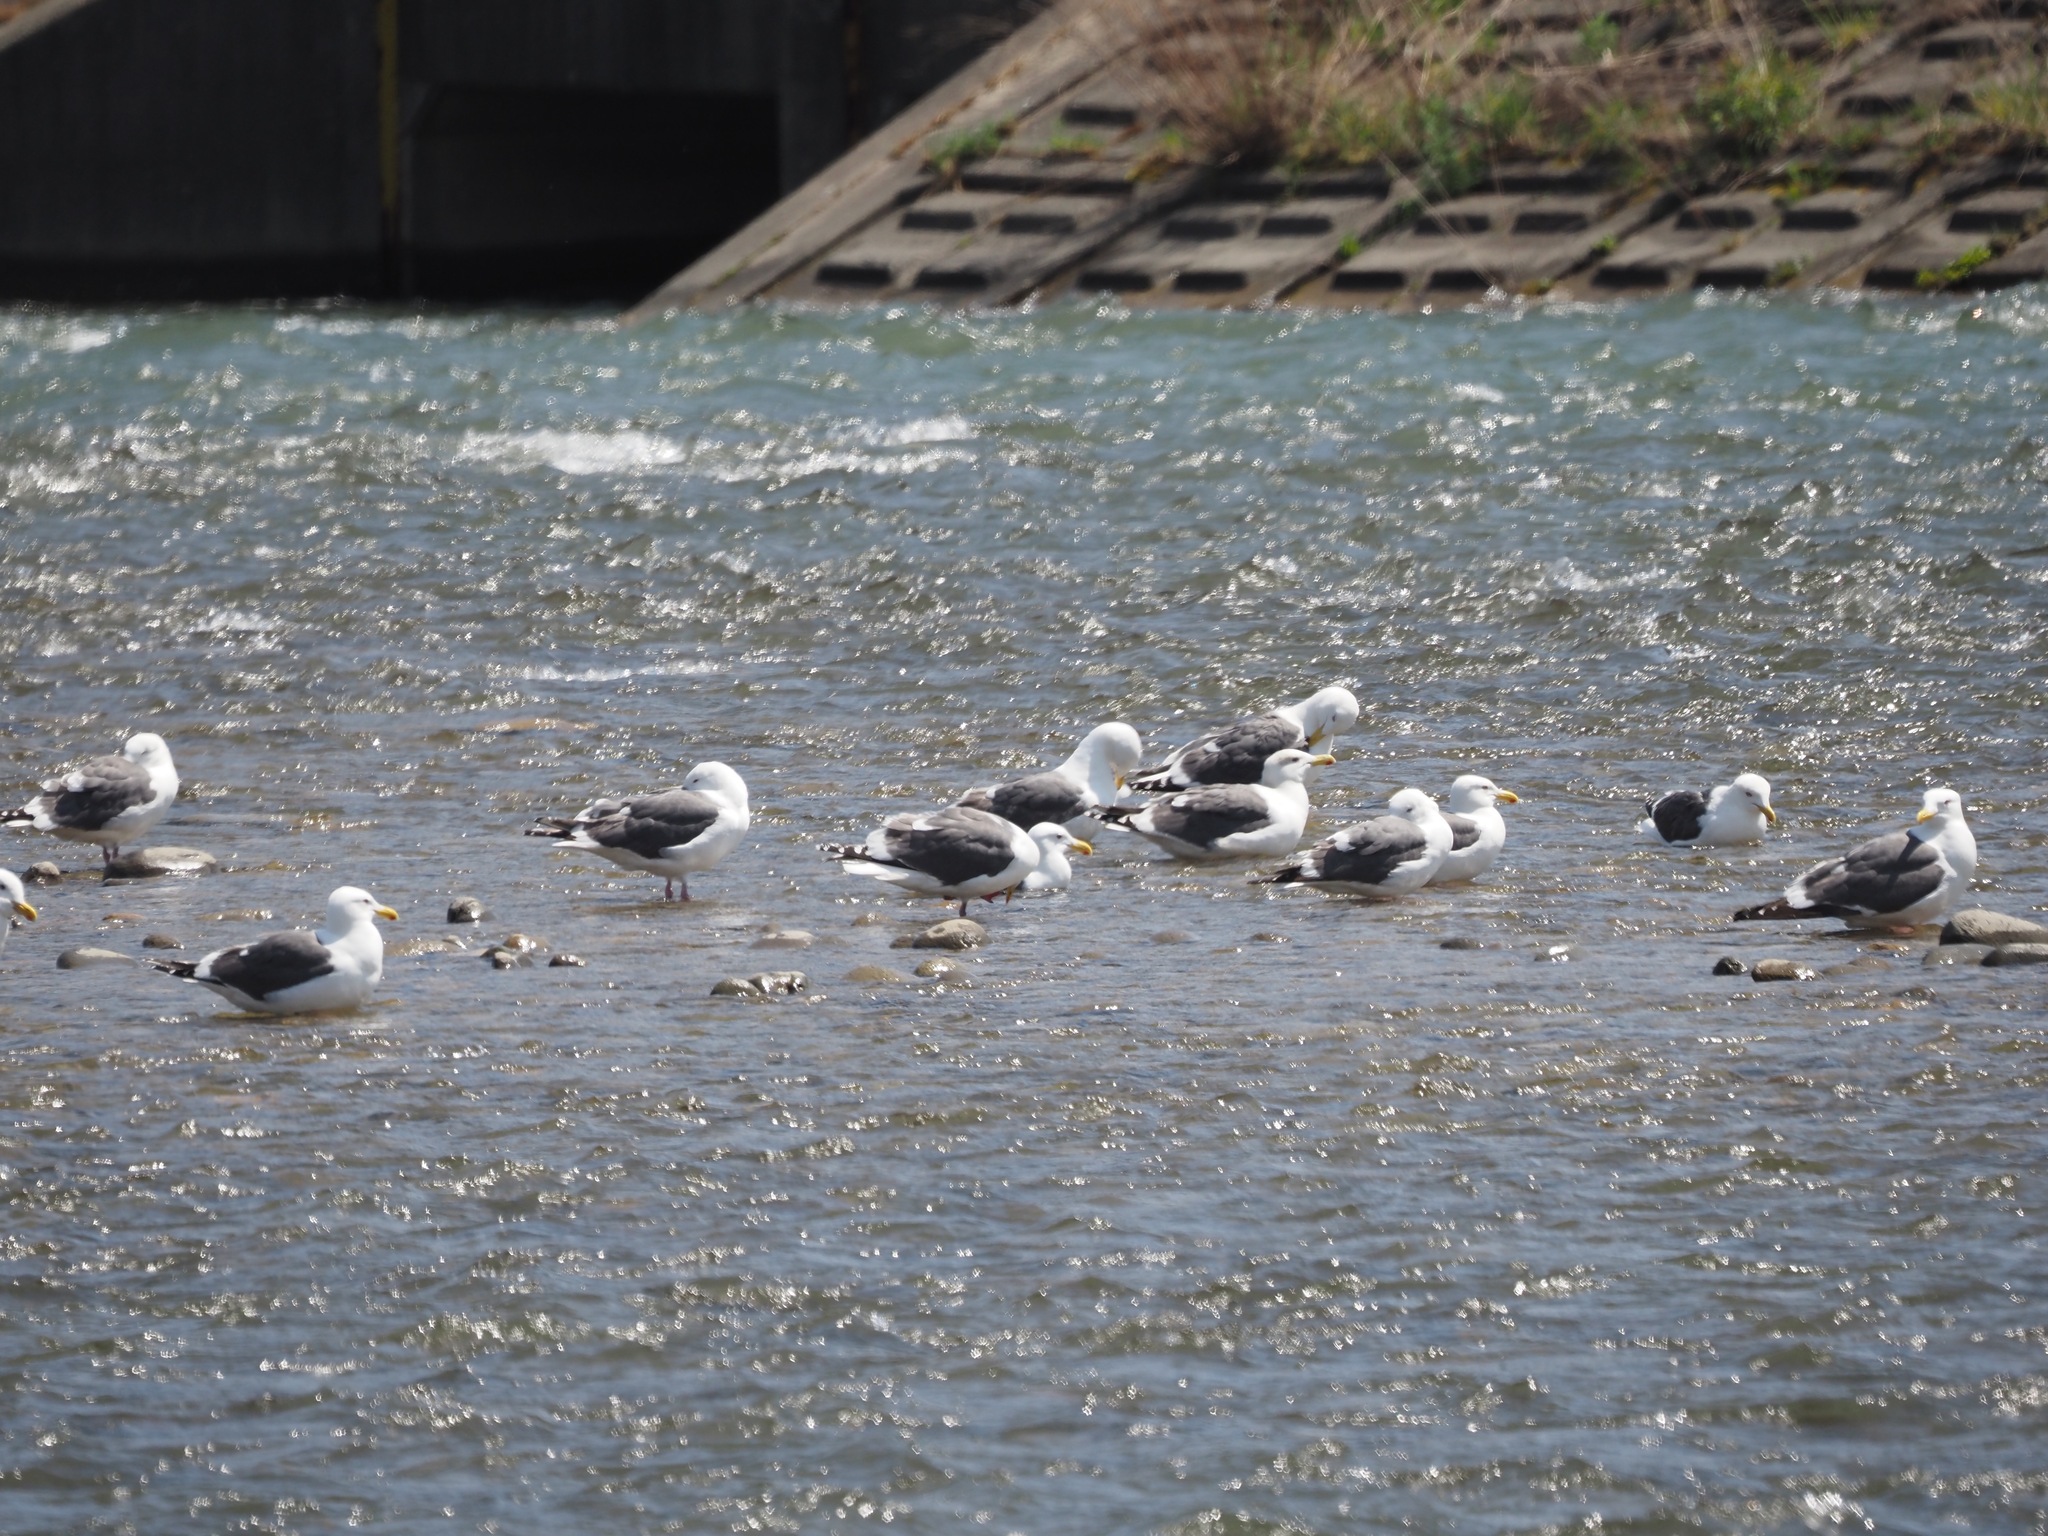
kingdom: Animalia
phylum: Chordata
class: Aves
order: Charadriiformes
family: Laridae
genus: Larus
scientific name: Larus schistisagus
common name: Slaty-backed gull
